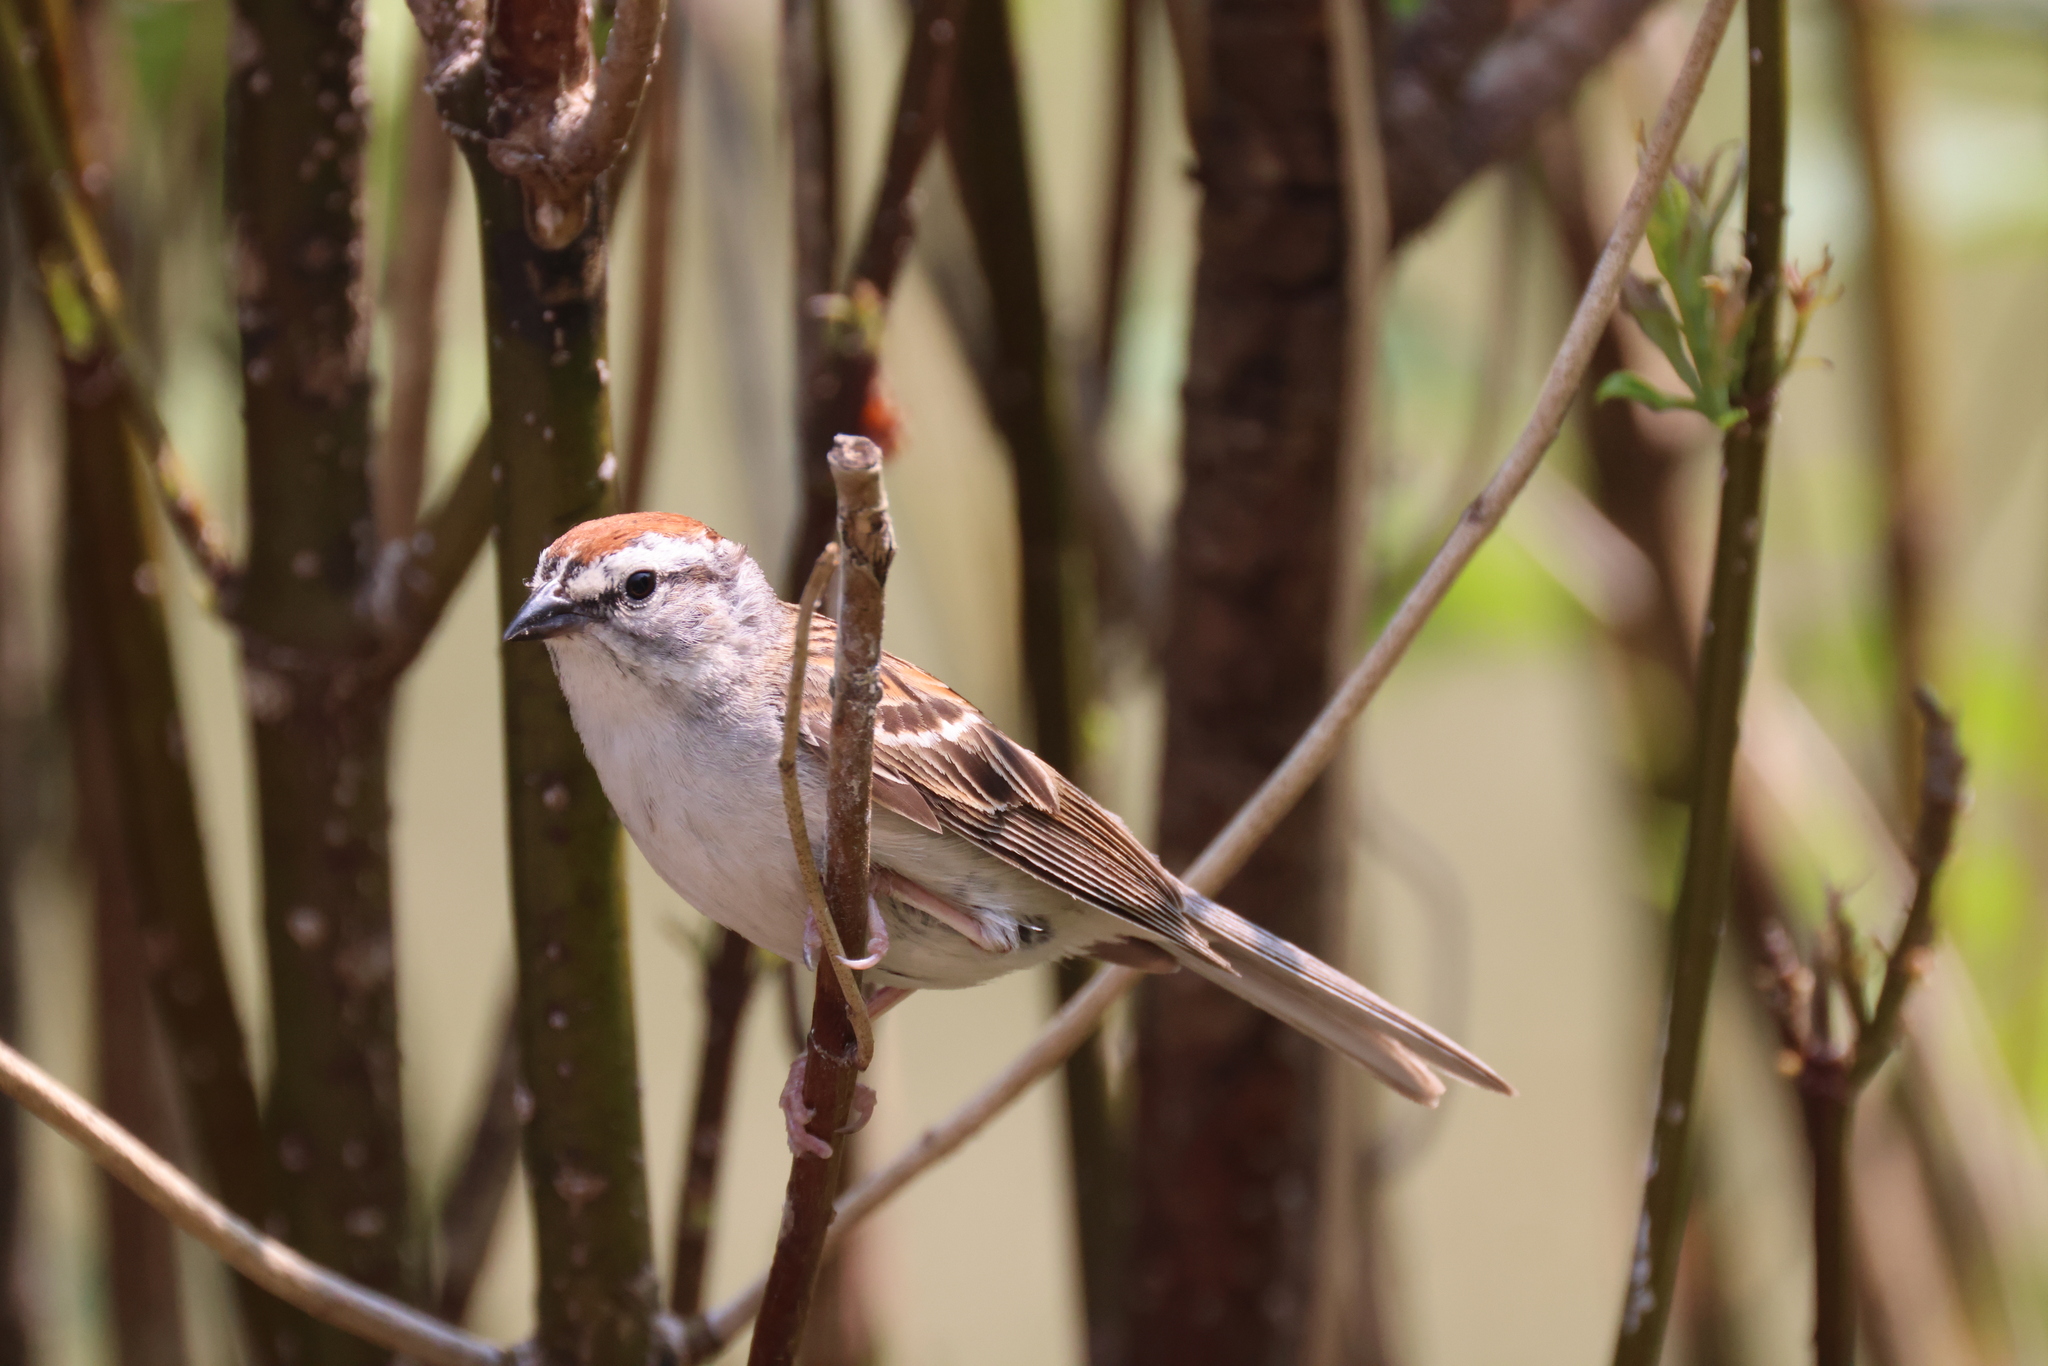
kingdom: Animalia
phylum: Chordata
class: Aves
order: Passeriformes
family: Passerellidae
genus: Spizella
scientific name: Spizella passerina
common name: Chipping sparrow
